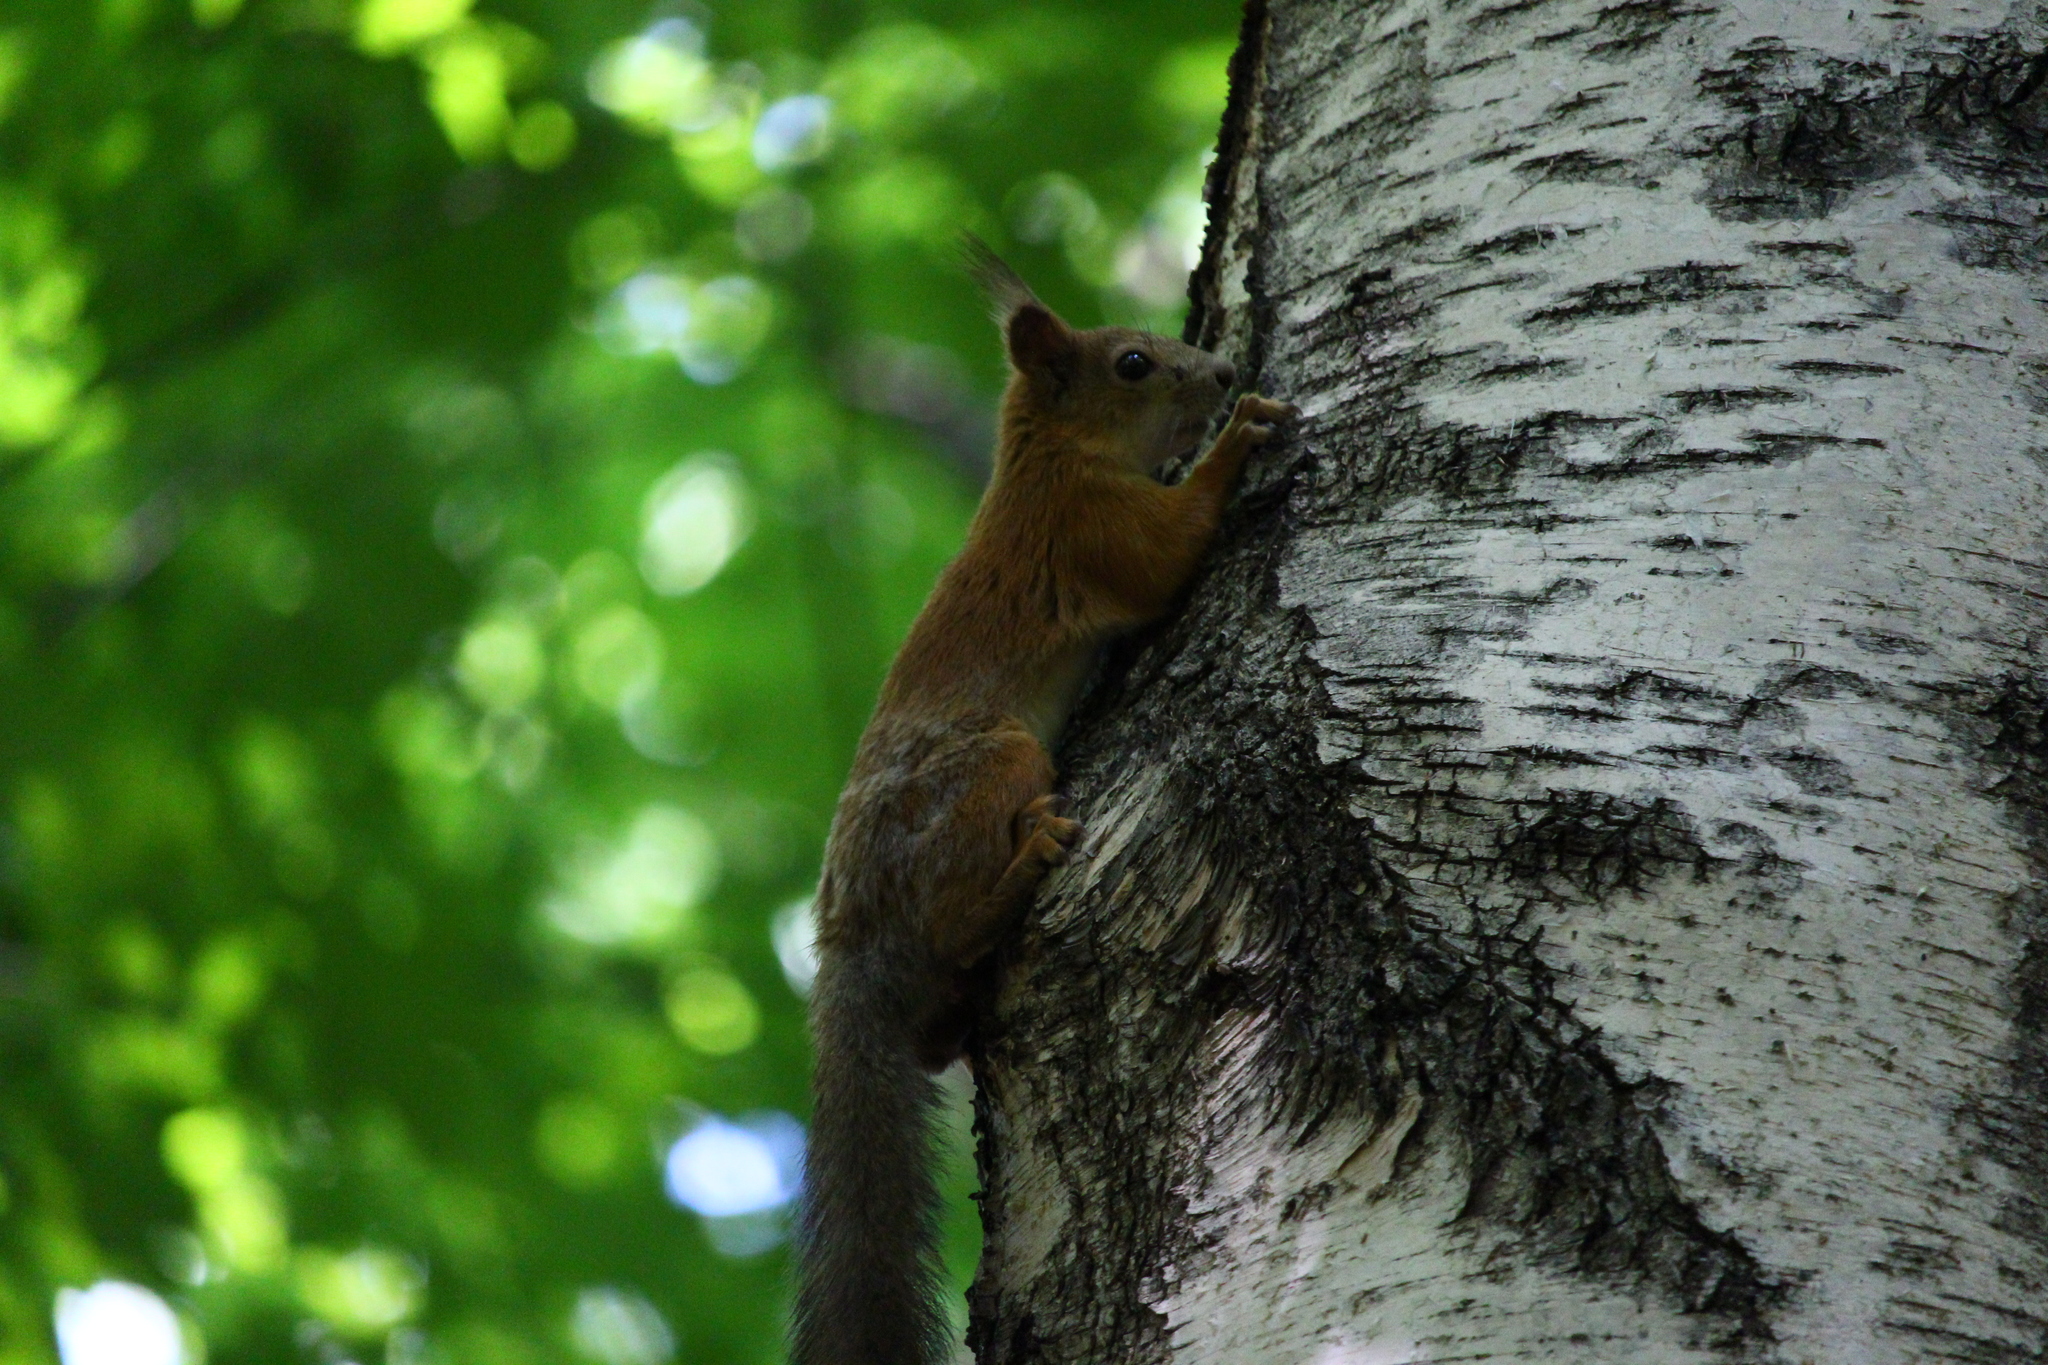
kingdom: Animalia
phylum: Chordata
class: Mammalia
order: Rodentia
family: Sciuridae
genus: Sciurus
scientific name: Sciurus vulgaris
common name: Eurasian red squirrel
